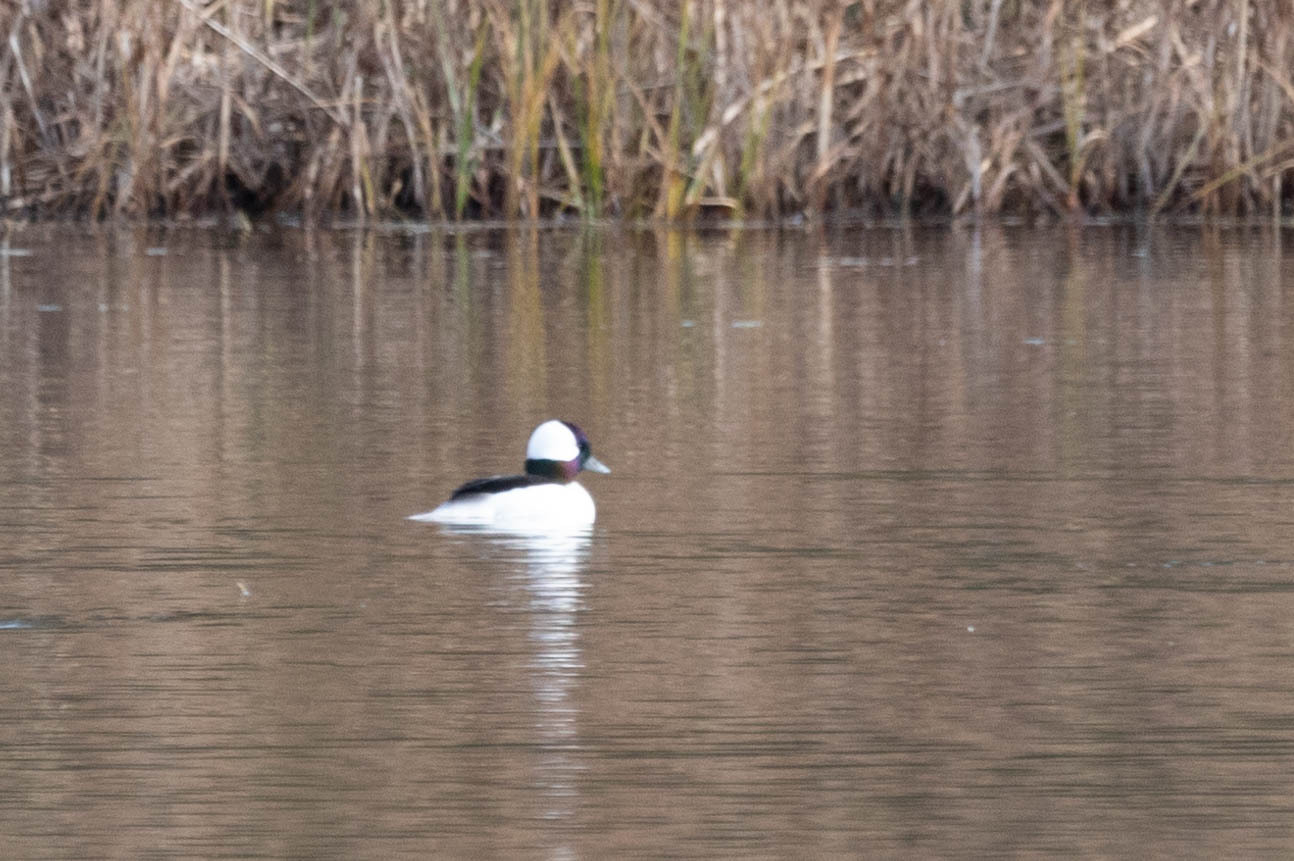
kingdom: Animalia
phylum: Chordata
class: Aves
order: Anseriformes
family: Anatidae
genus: Bucephala
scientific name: Bucephala albeola
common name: Bufflehead
